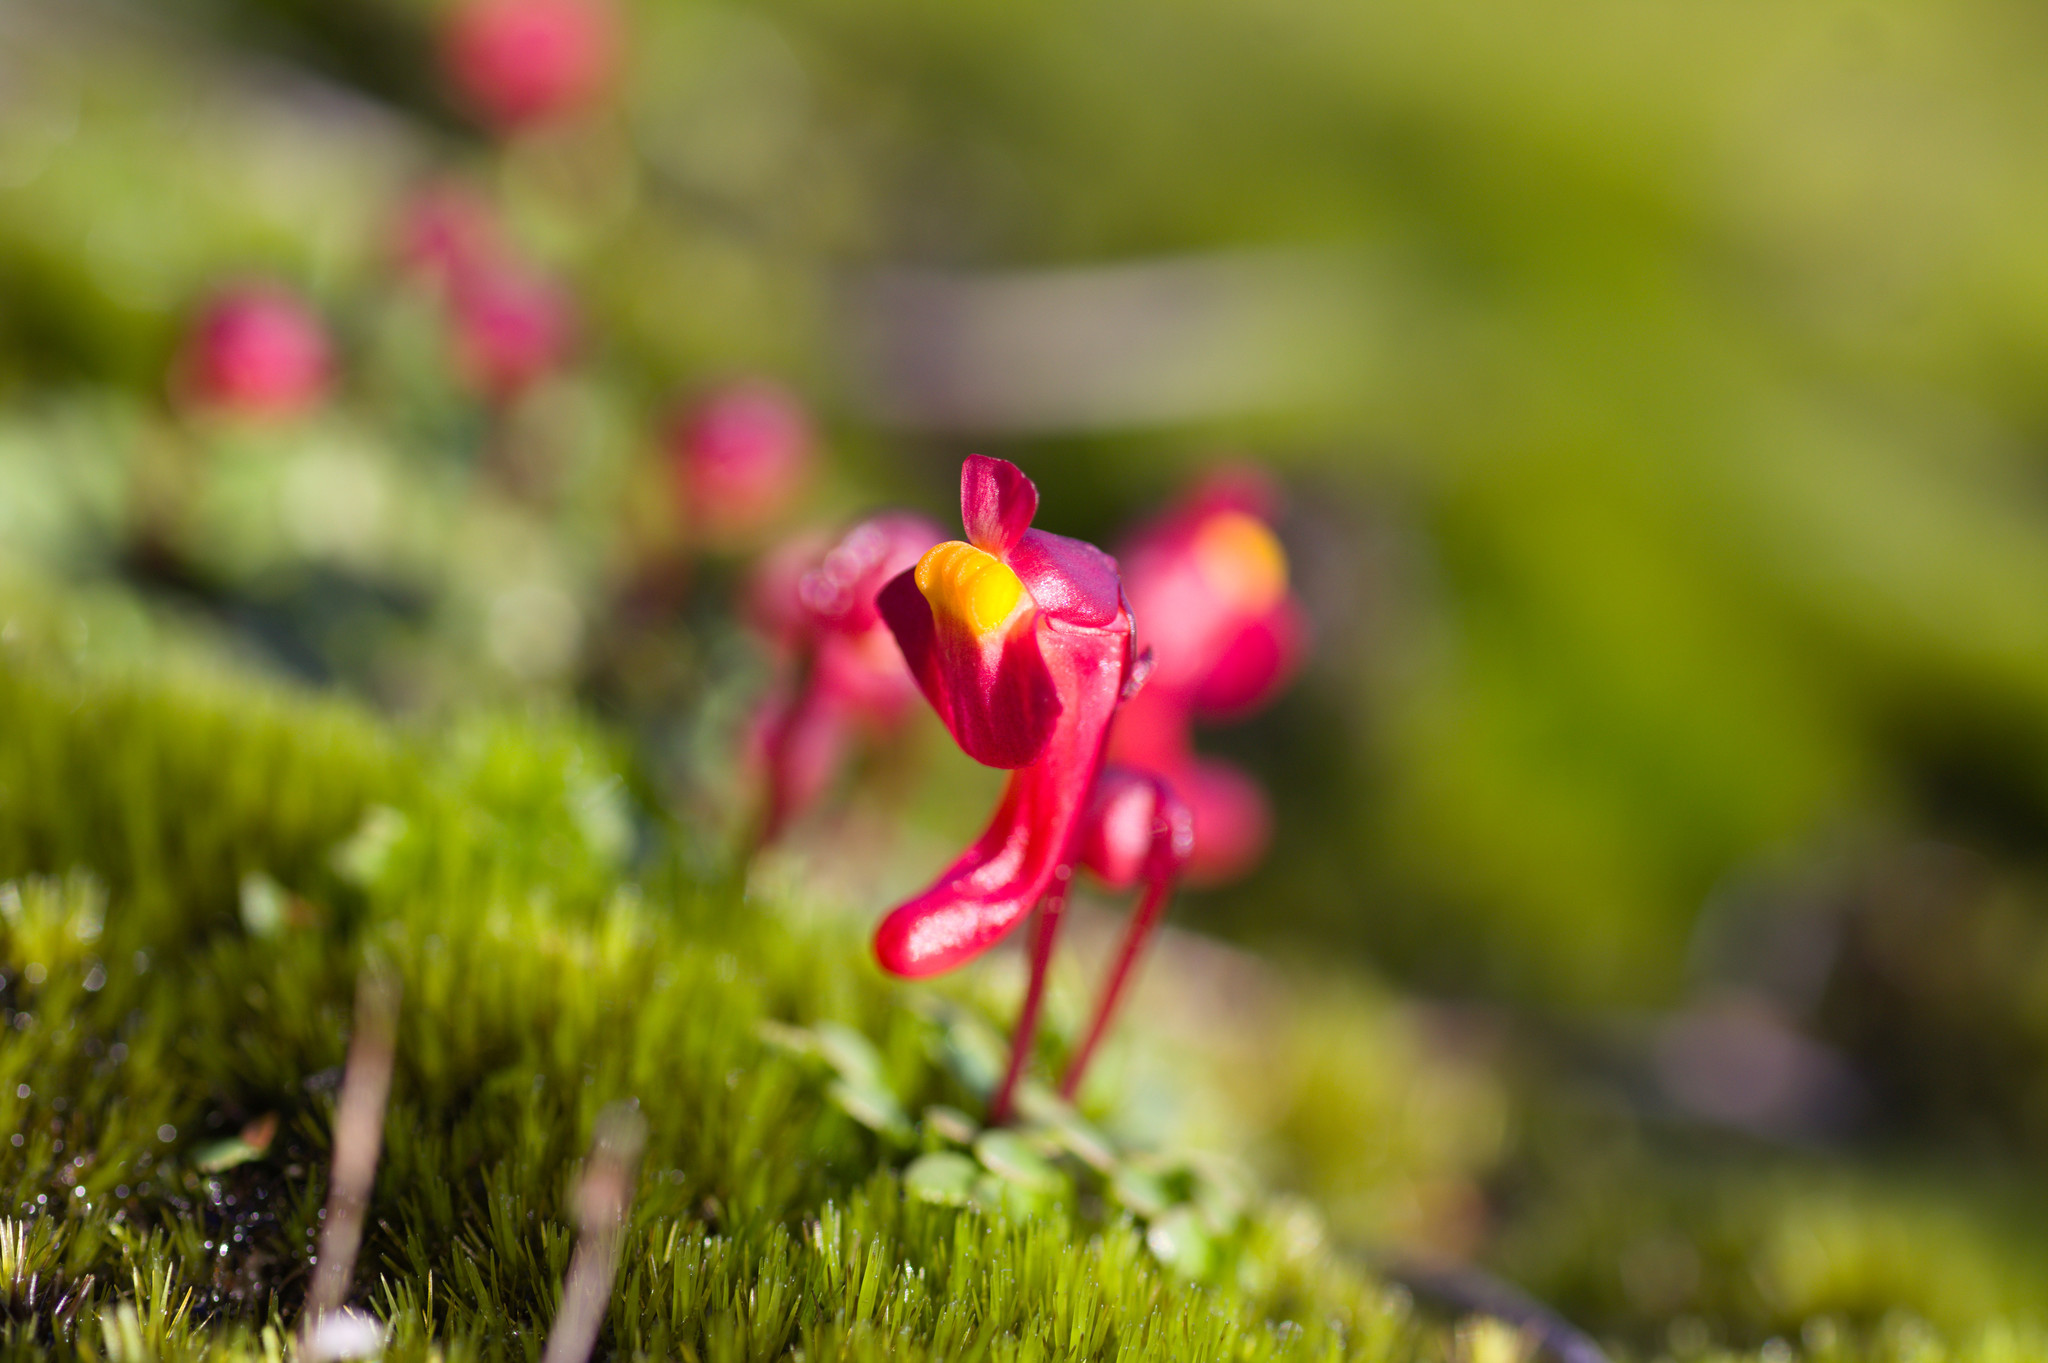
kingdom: Plantae
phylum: Tracheophyta
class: Magnoliopsida
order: Lamiales
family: Lentibulariaceae
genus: Utricularia
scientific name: Utricularia menziesii
